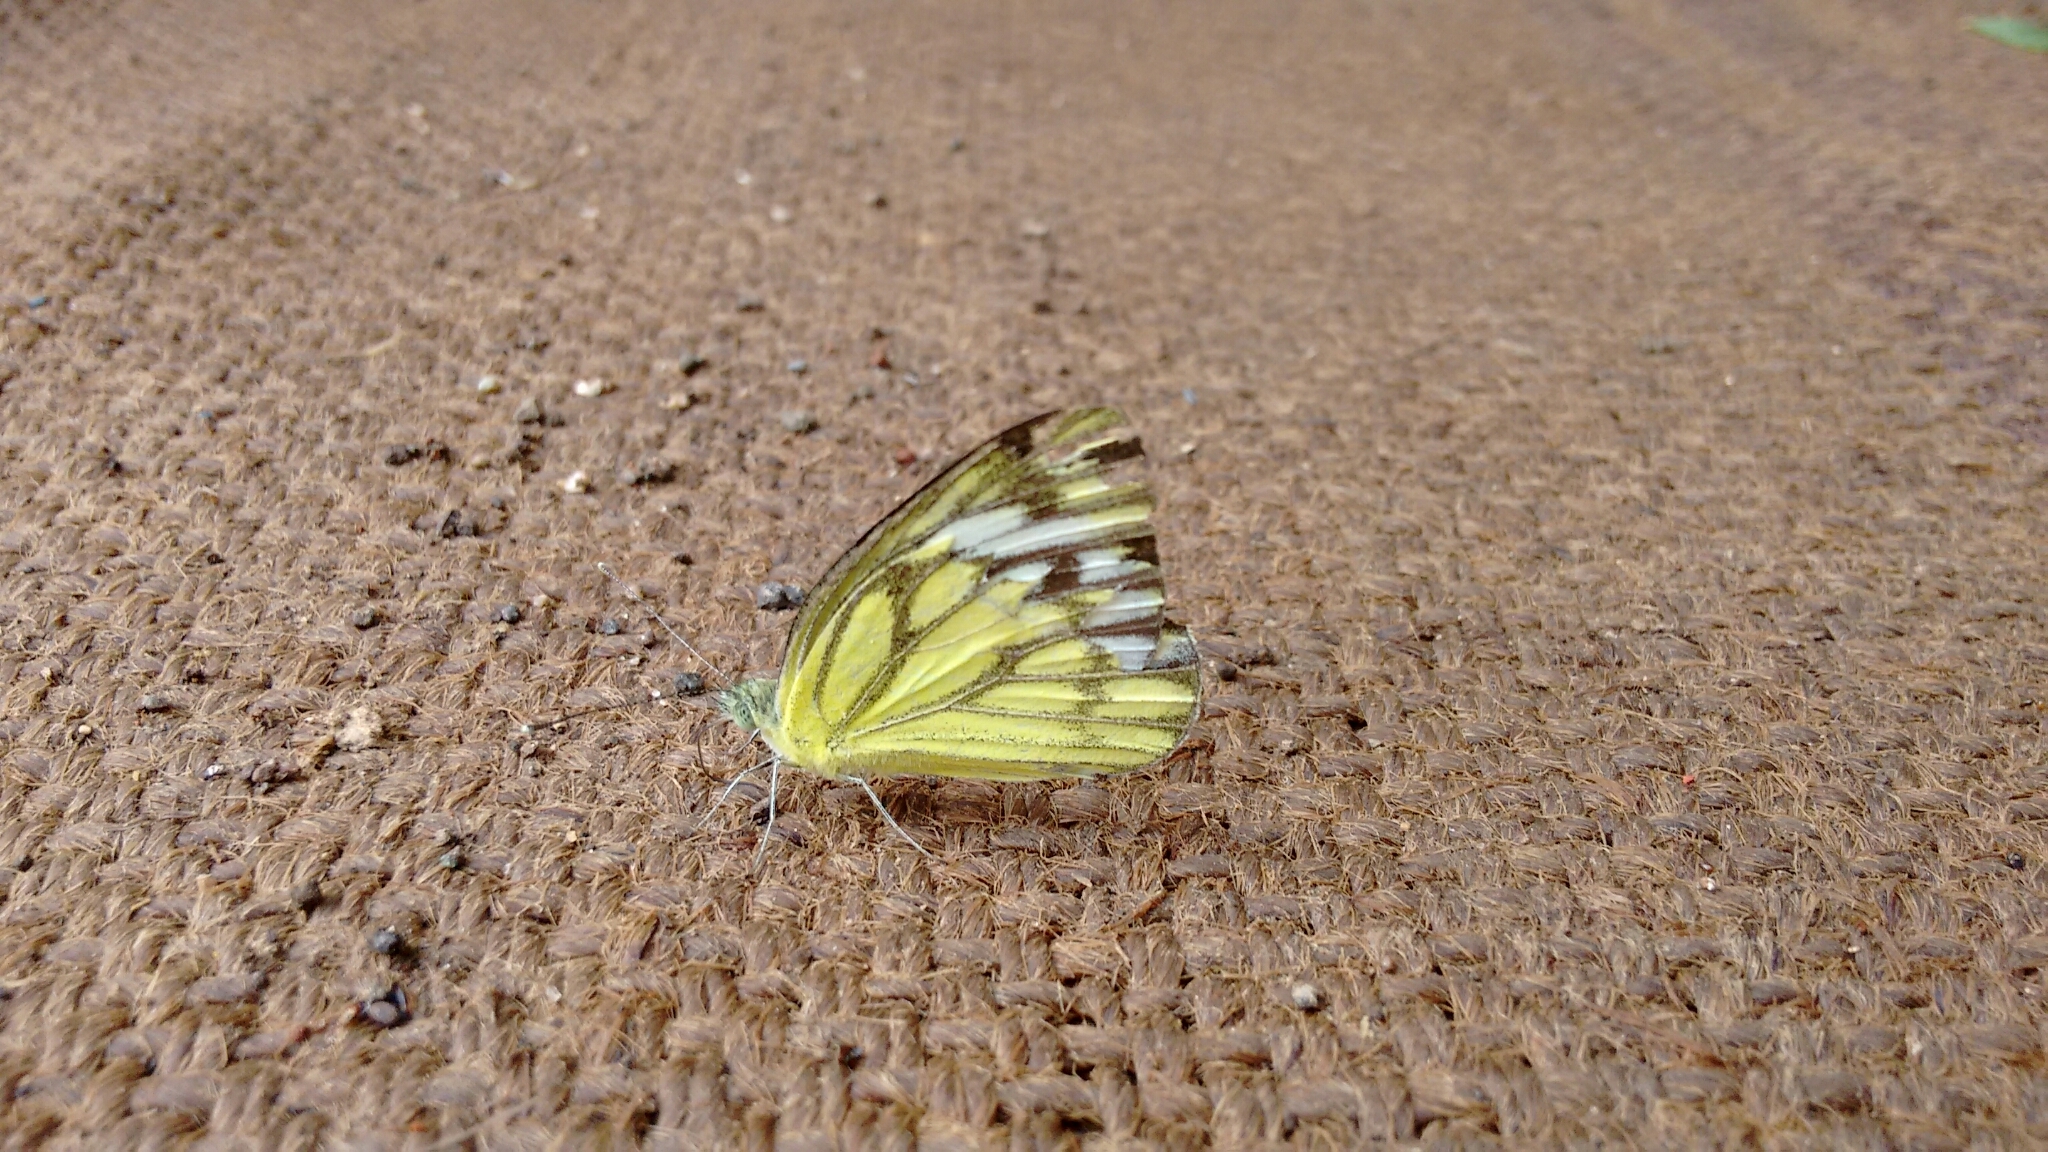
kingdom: Animalia
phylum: Arthropoda
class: Insecta
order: Lepidoptera
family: Pieridae
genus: Cepora
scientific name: Cepora nerissa
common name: Common gull
